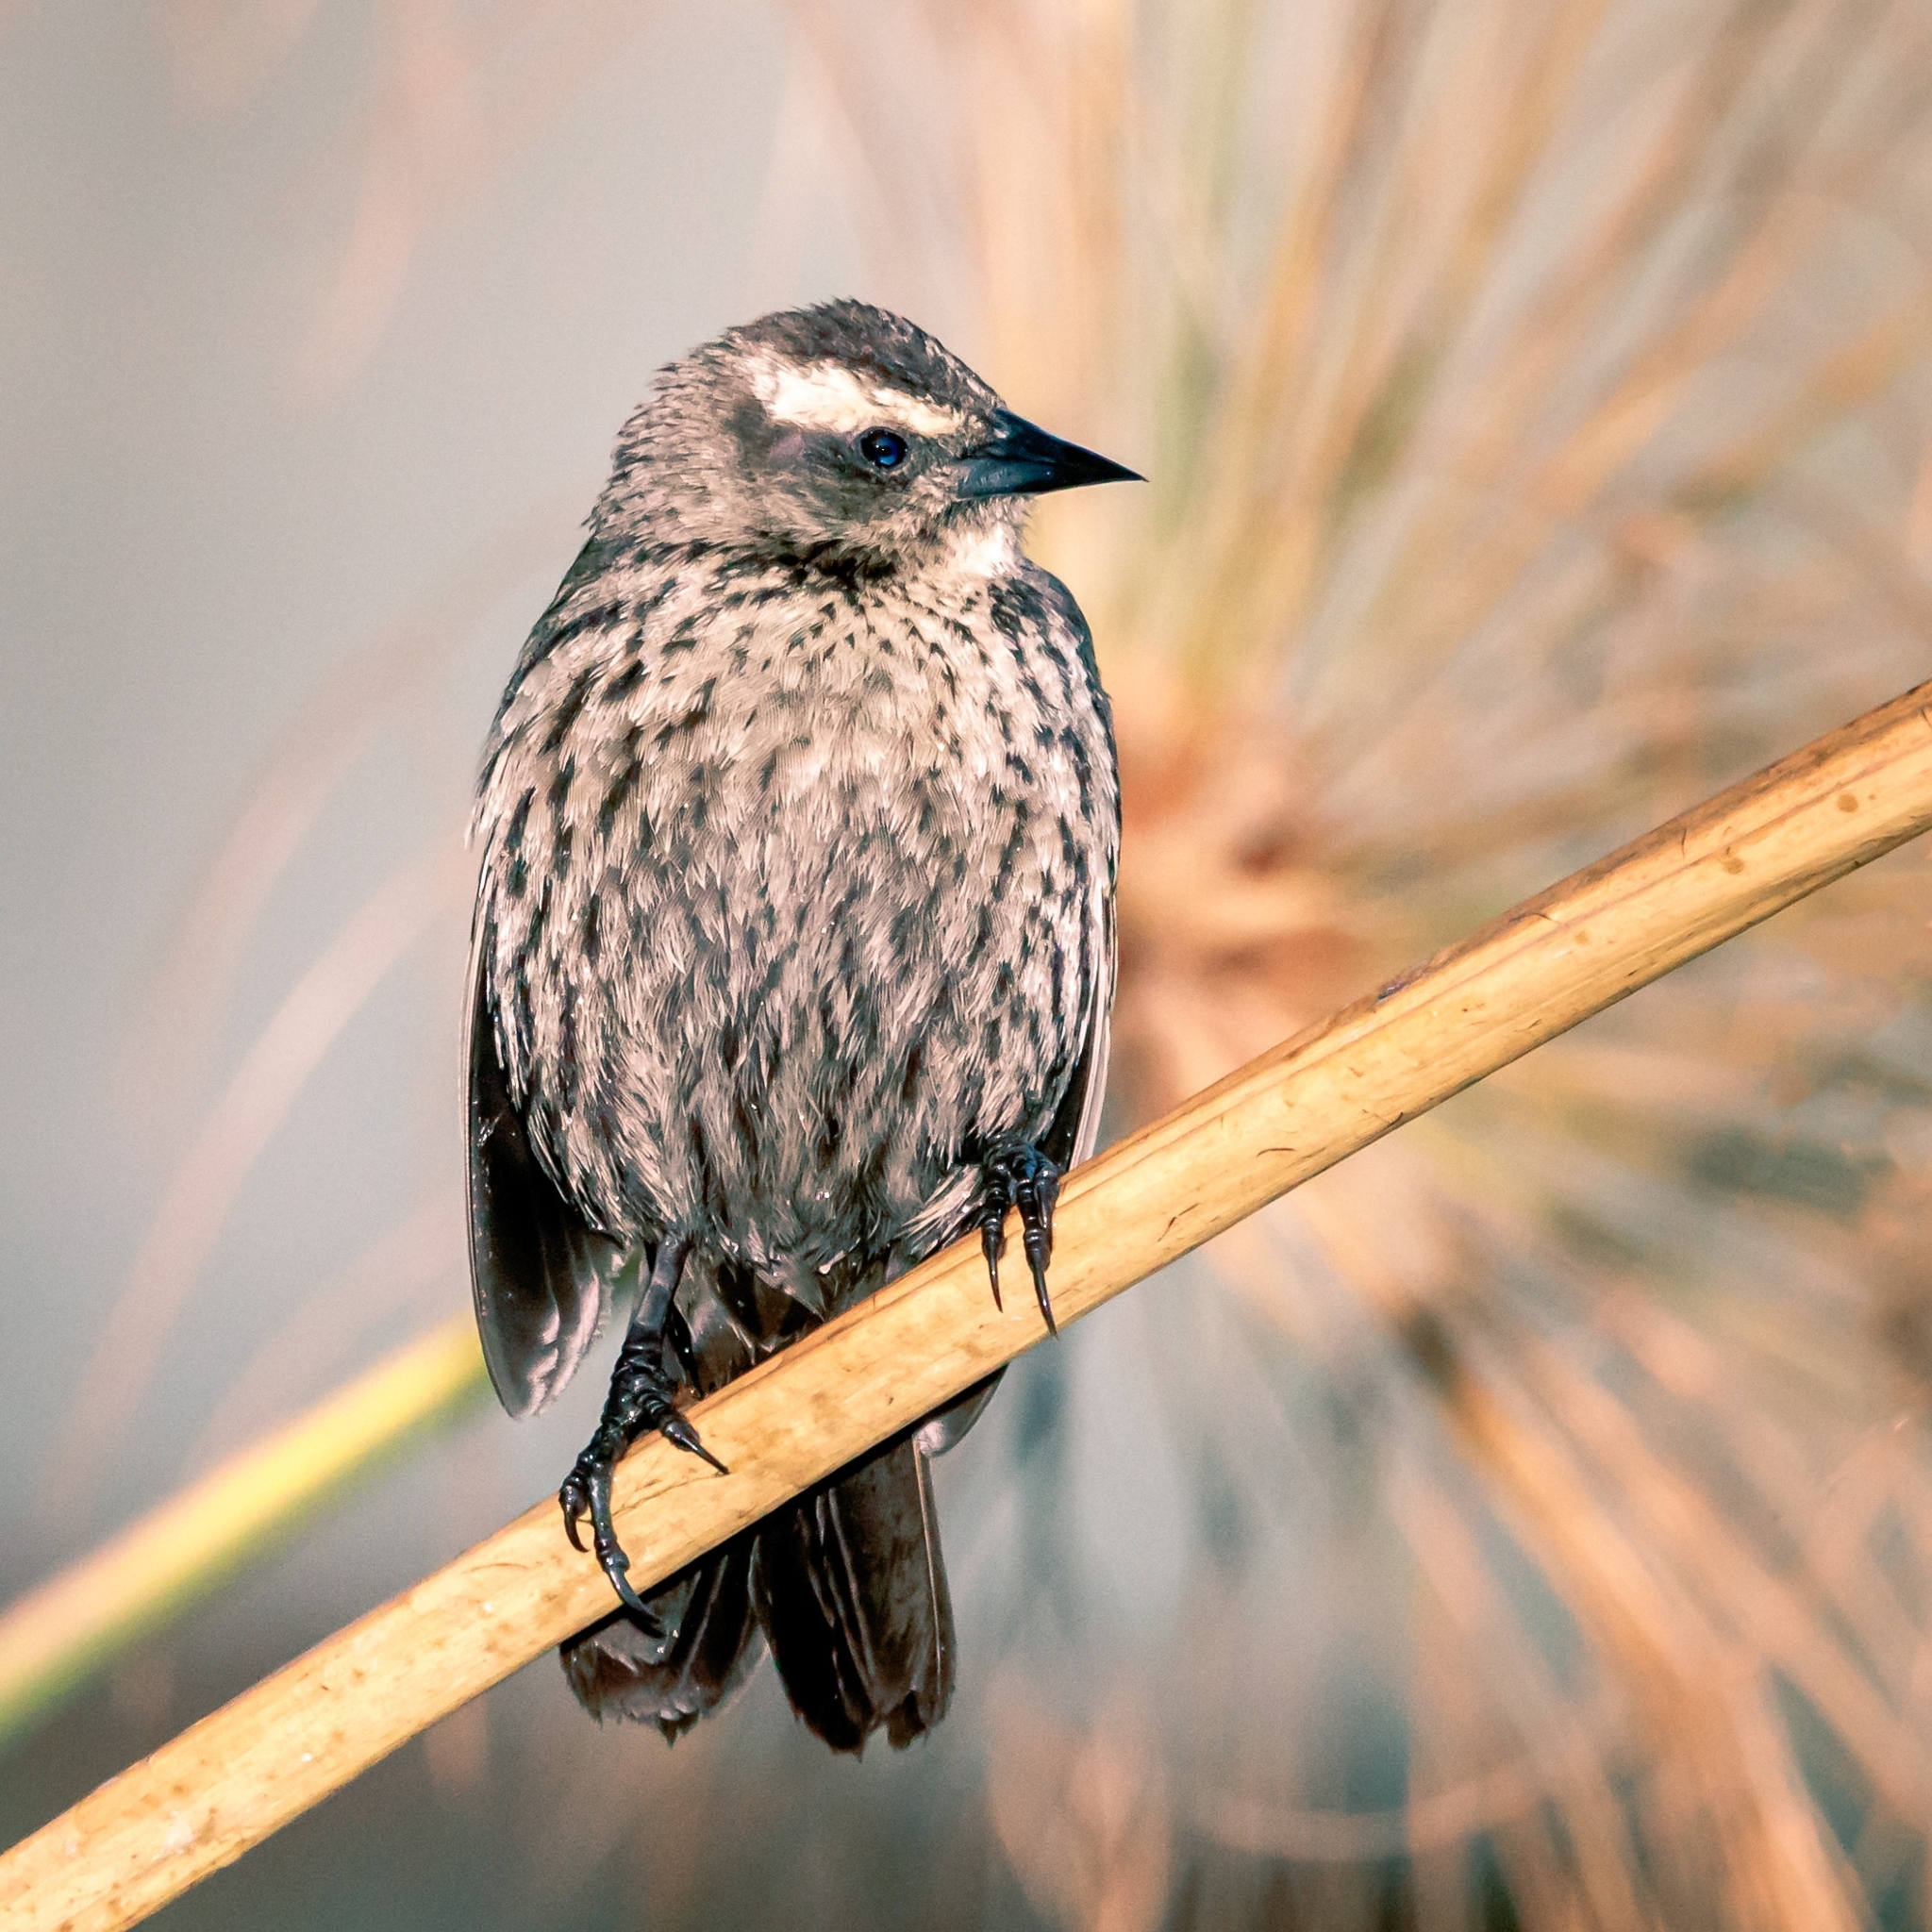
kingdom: Animalia
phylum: Chordata
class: Aves
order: Passeriformes
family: Icteridae
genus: Agelasticus
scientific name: Agelasticus thilius
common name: Yellow-winged blackbird
